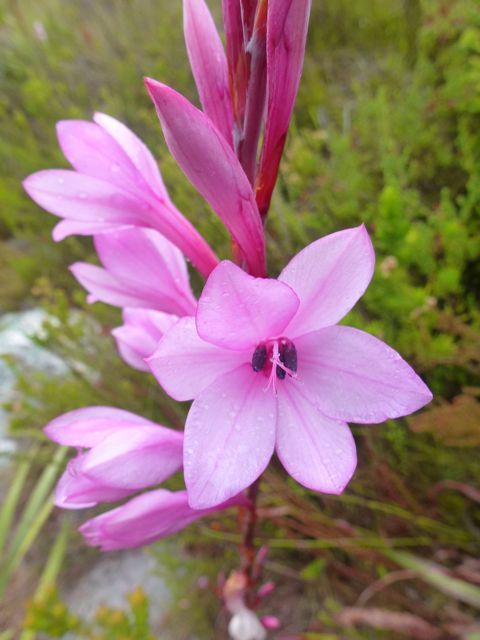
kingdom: Plantae
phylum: Tracheophyta
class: Liliopsida
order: Asparagales
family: Iridaceae
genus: Watsonia
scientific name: Watsonia fourcadei
